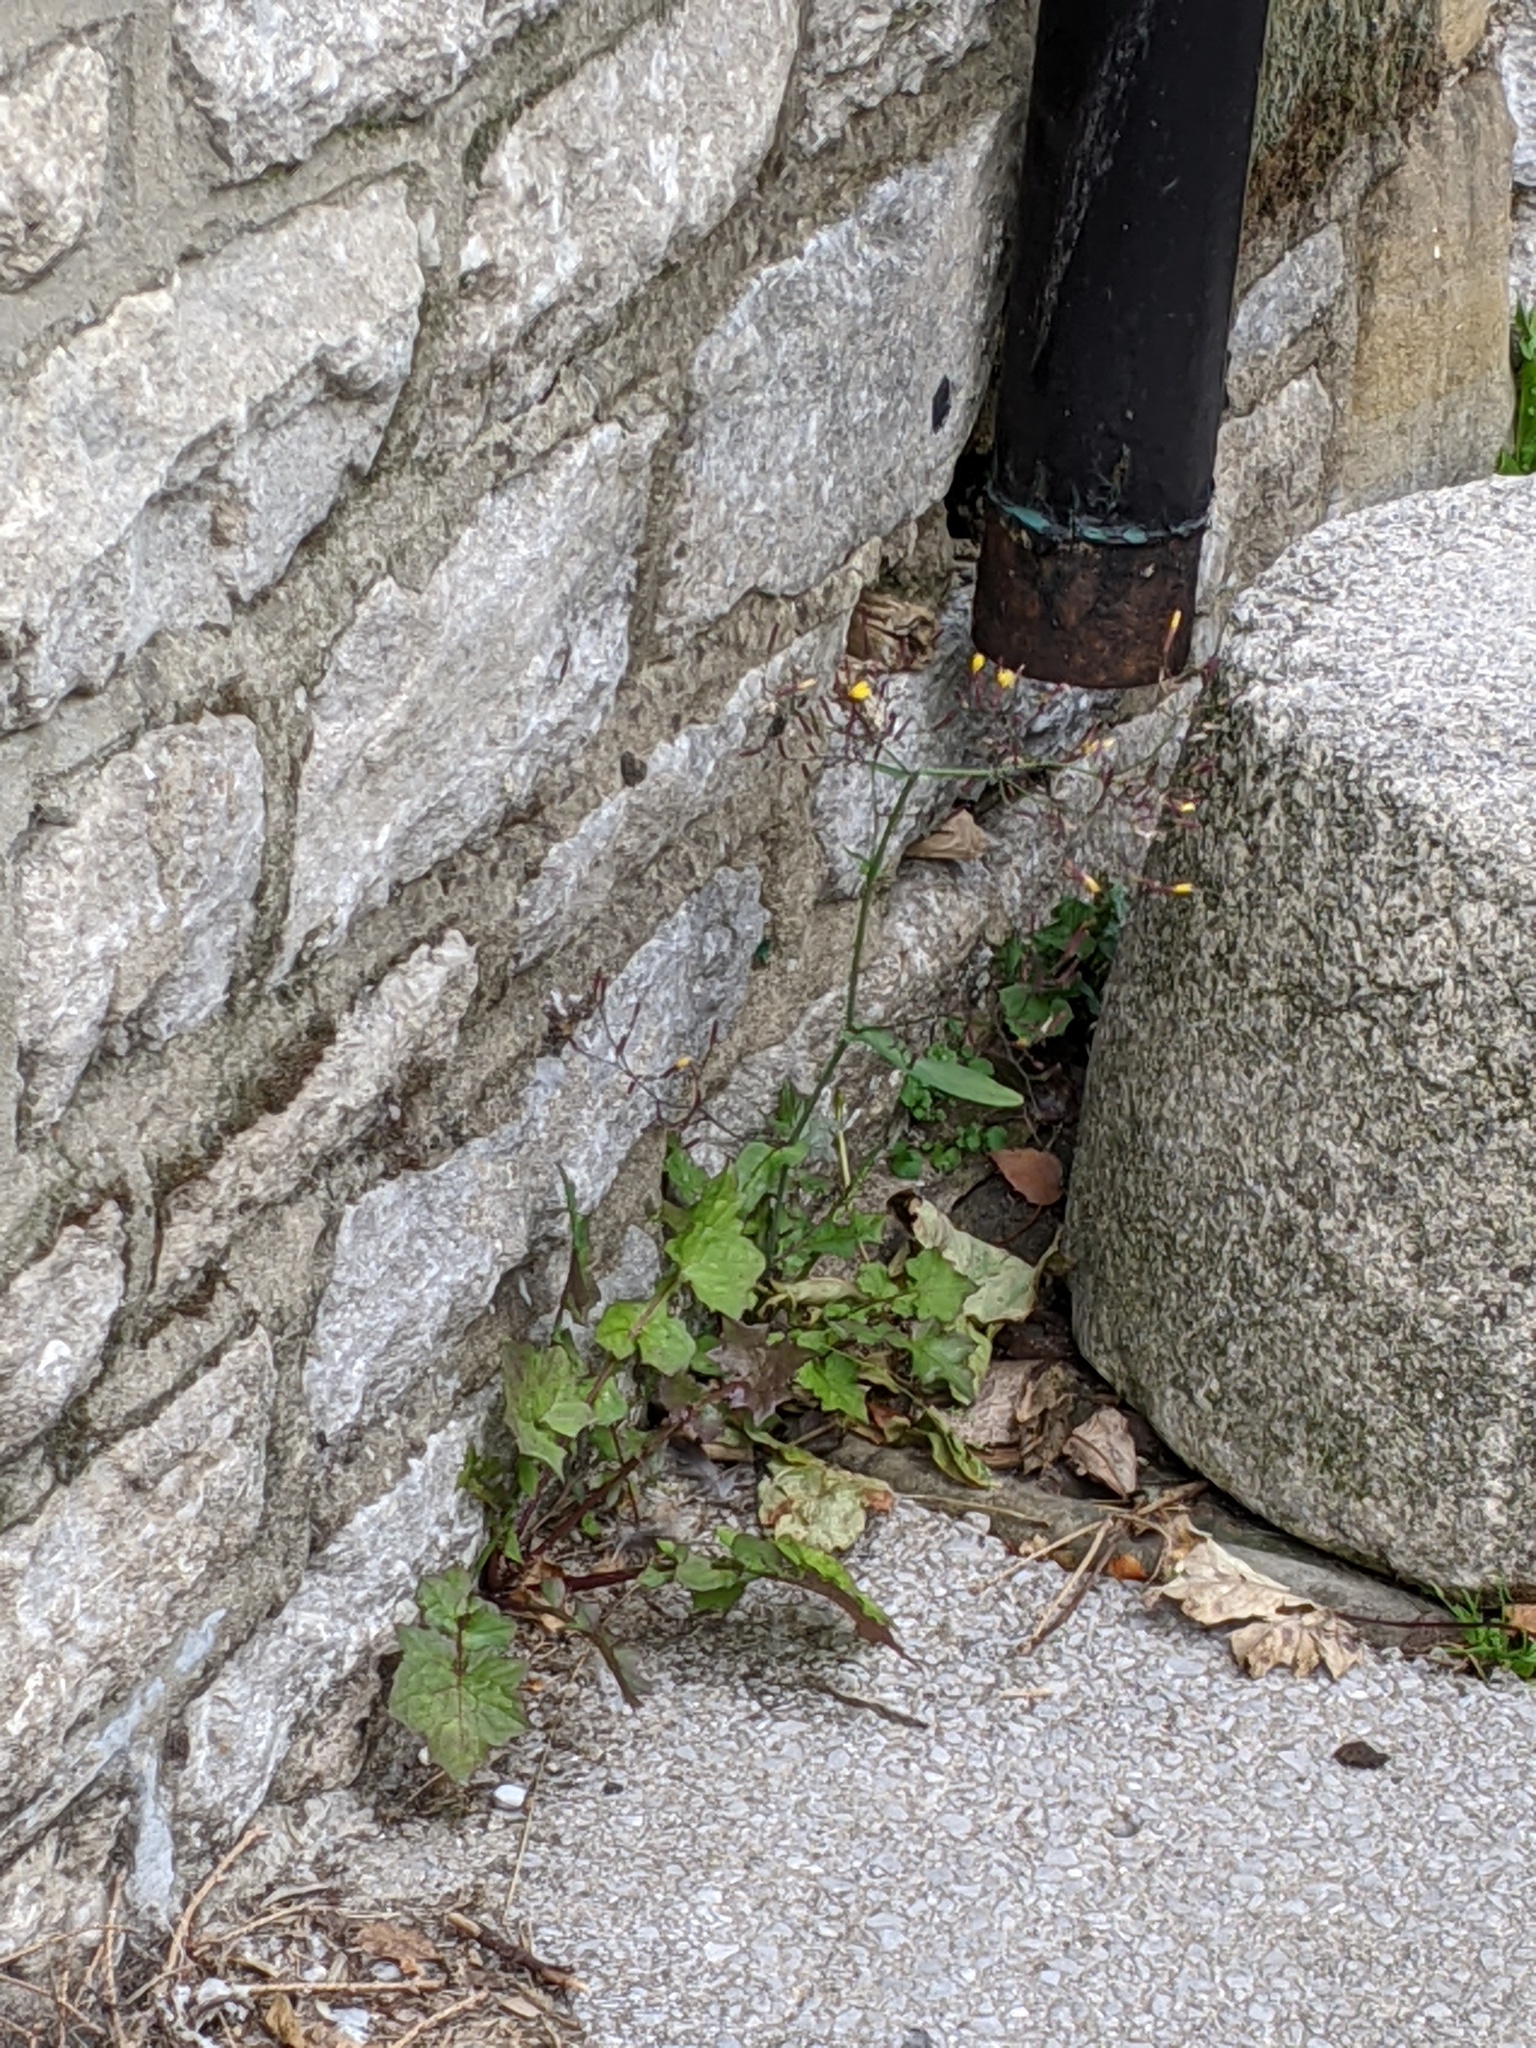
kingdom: Plantae
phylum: Tracheophyta
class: Magnoliopsida
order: Asterales
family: Asteraceae
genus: Mycelis
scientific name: Mycelis muralis
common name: Wall lettuce
